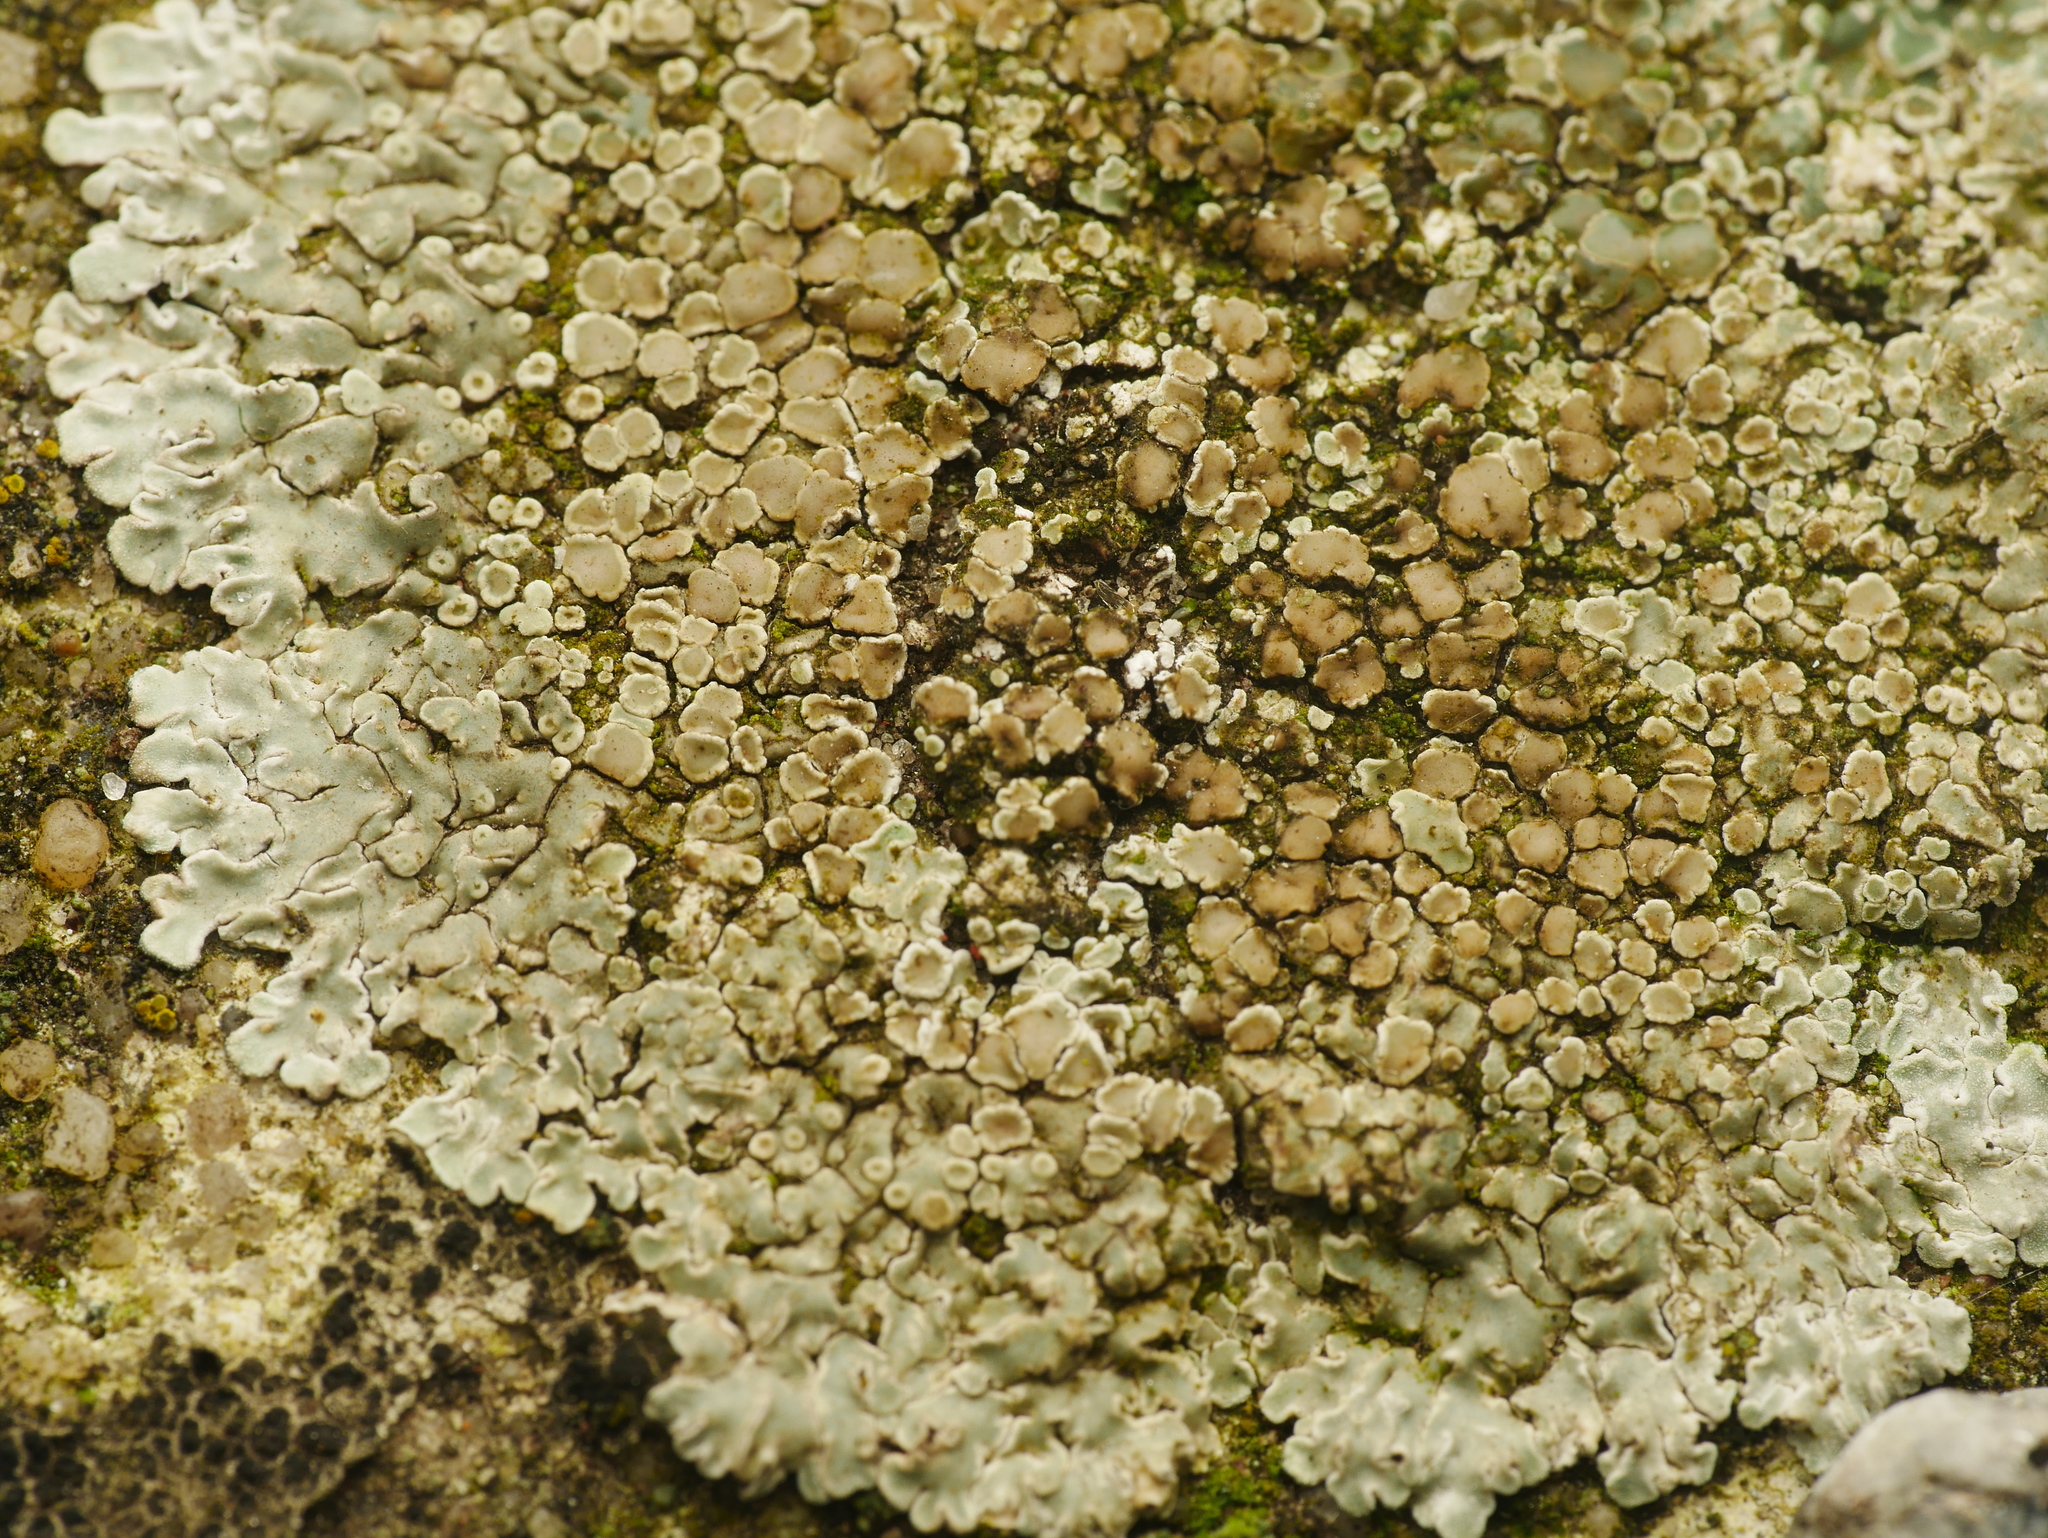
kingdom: Fungi
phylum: Ascomycota
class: Lecanoromycetes
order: Lecanorales
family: Lecanoraceae
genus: Protoparmeliopsis
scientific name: Protoparmeliopsis muralis
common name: Stonewall rim lichen
